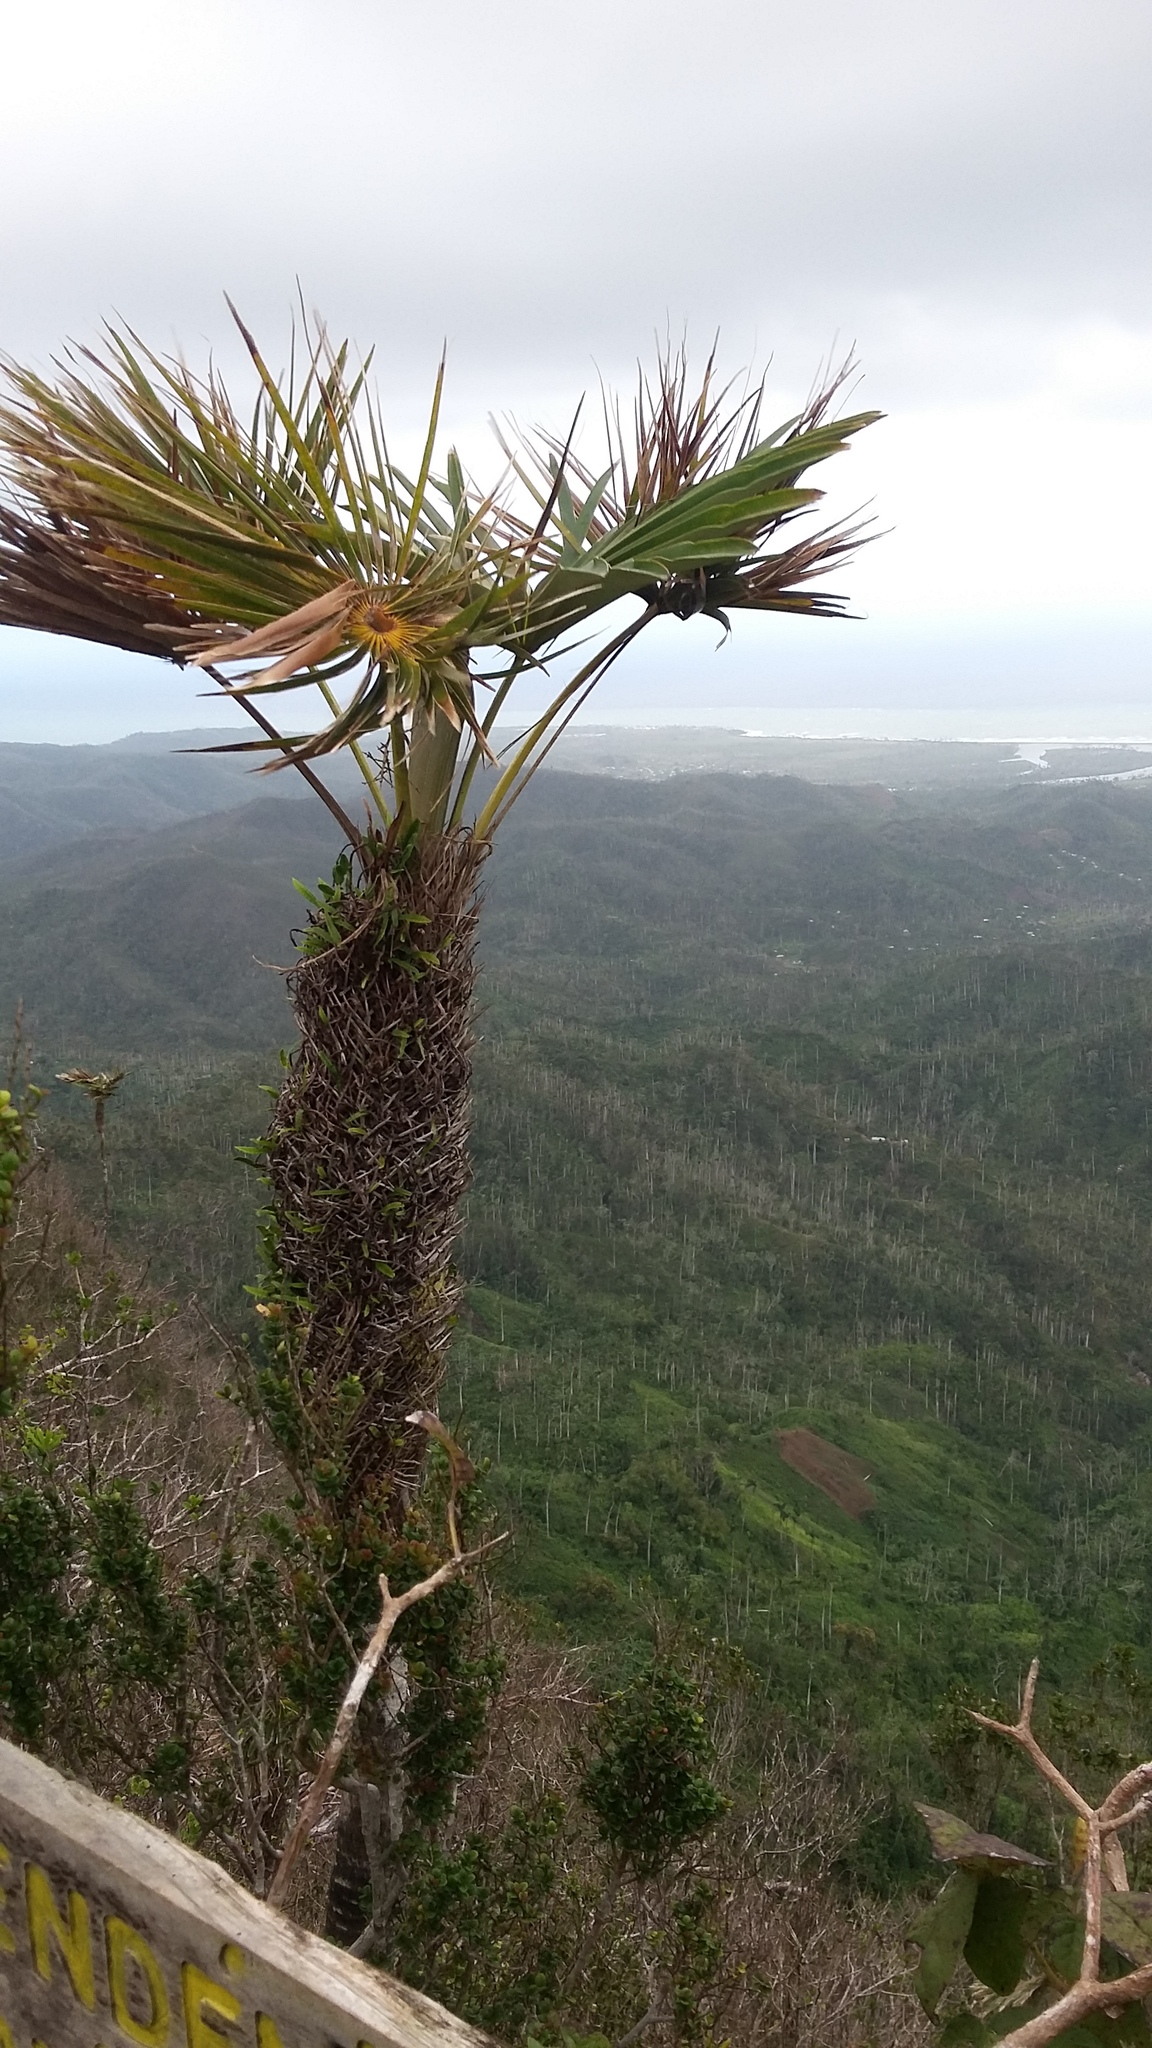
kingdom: Plantae
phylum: Tracheophyta
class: Liliopsida
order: Arecales
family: Arecaceae
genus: Coccothrinax
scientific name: Coccothrinax yunquensis
